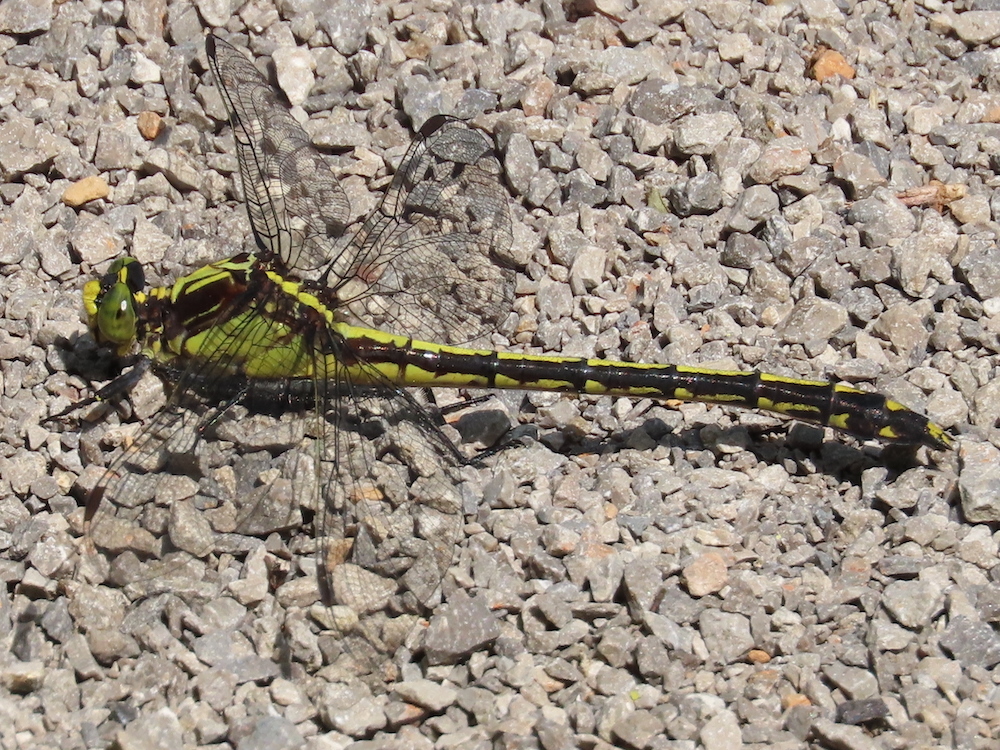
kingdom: Animalia
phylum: Arthropoda
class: Insecta
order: Odonata
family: Gomphidae
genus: Dromogomphus
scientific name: Dromogomphus spinosus
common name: Black-shouldered spinyleg
